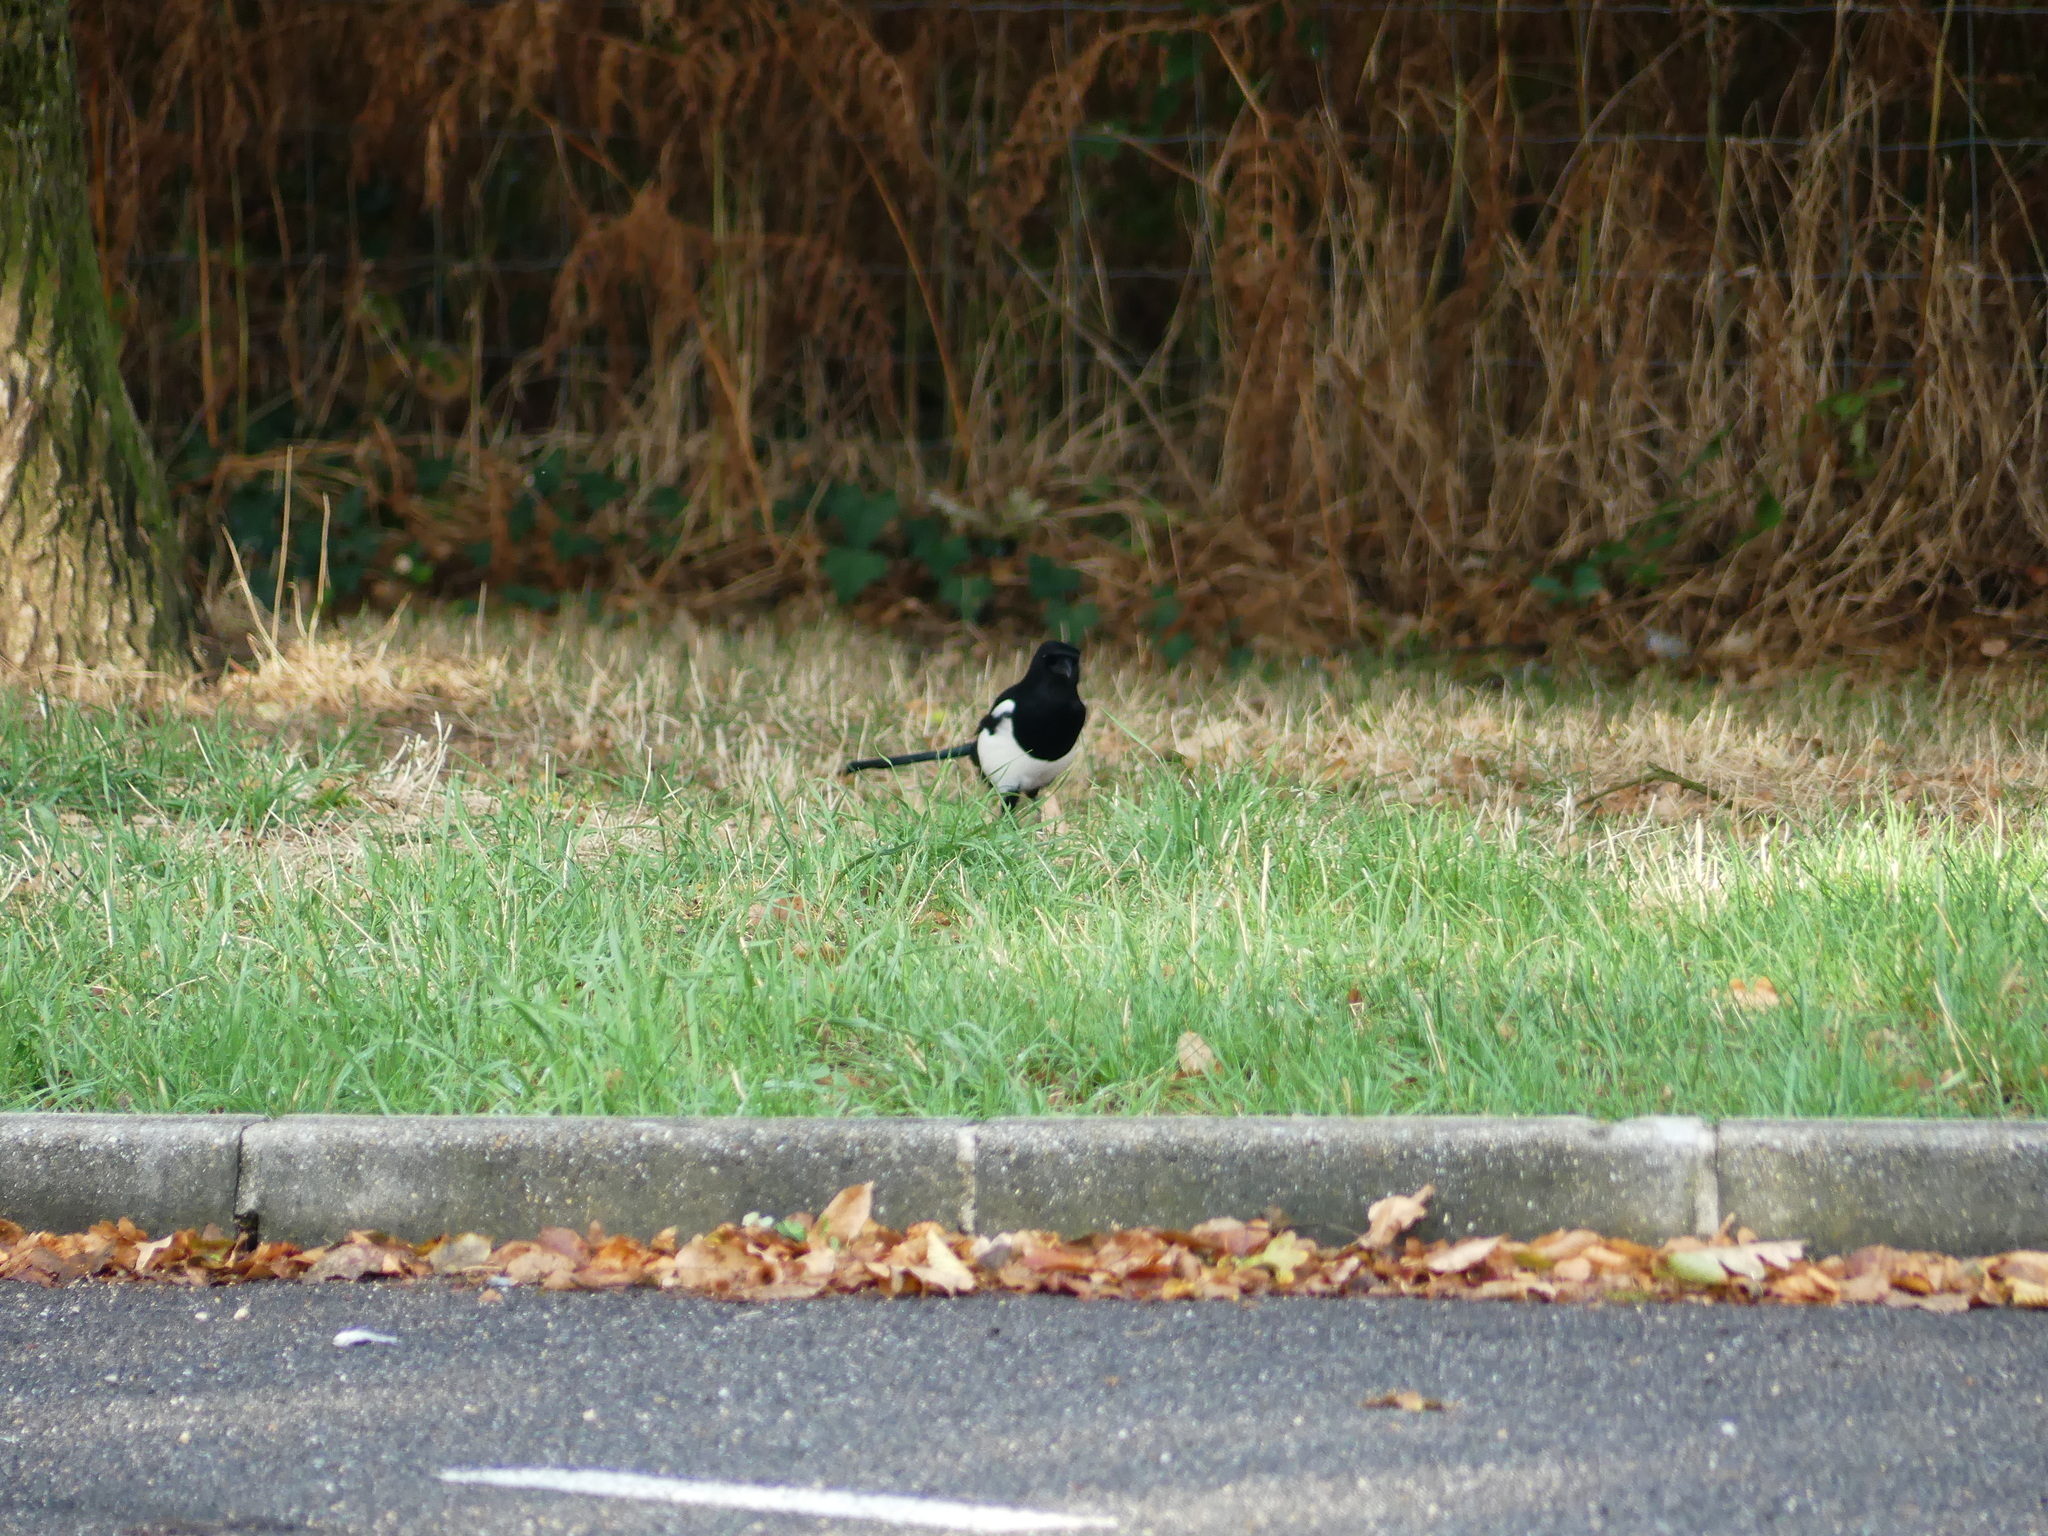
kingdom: Animalia
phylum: Chordata
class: Aves
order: Passeriformes
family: Corvidae
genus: Pica
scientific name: Pica pica
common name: Eurasian magpie
